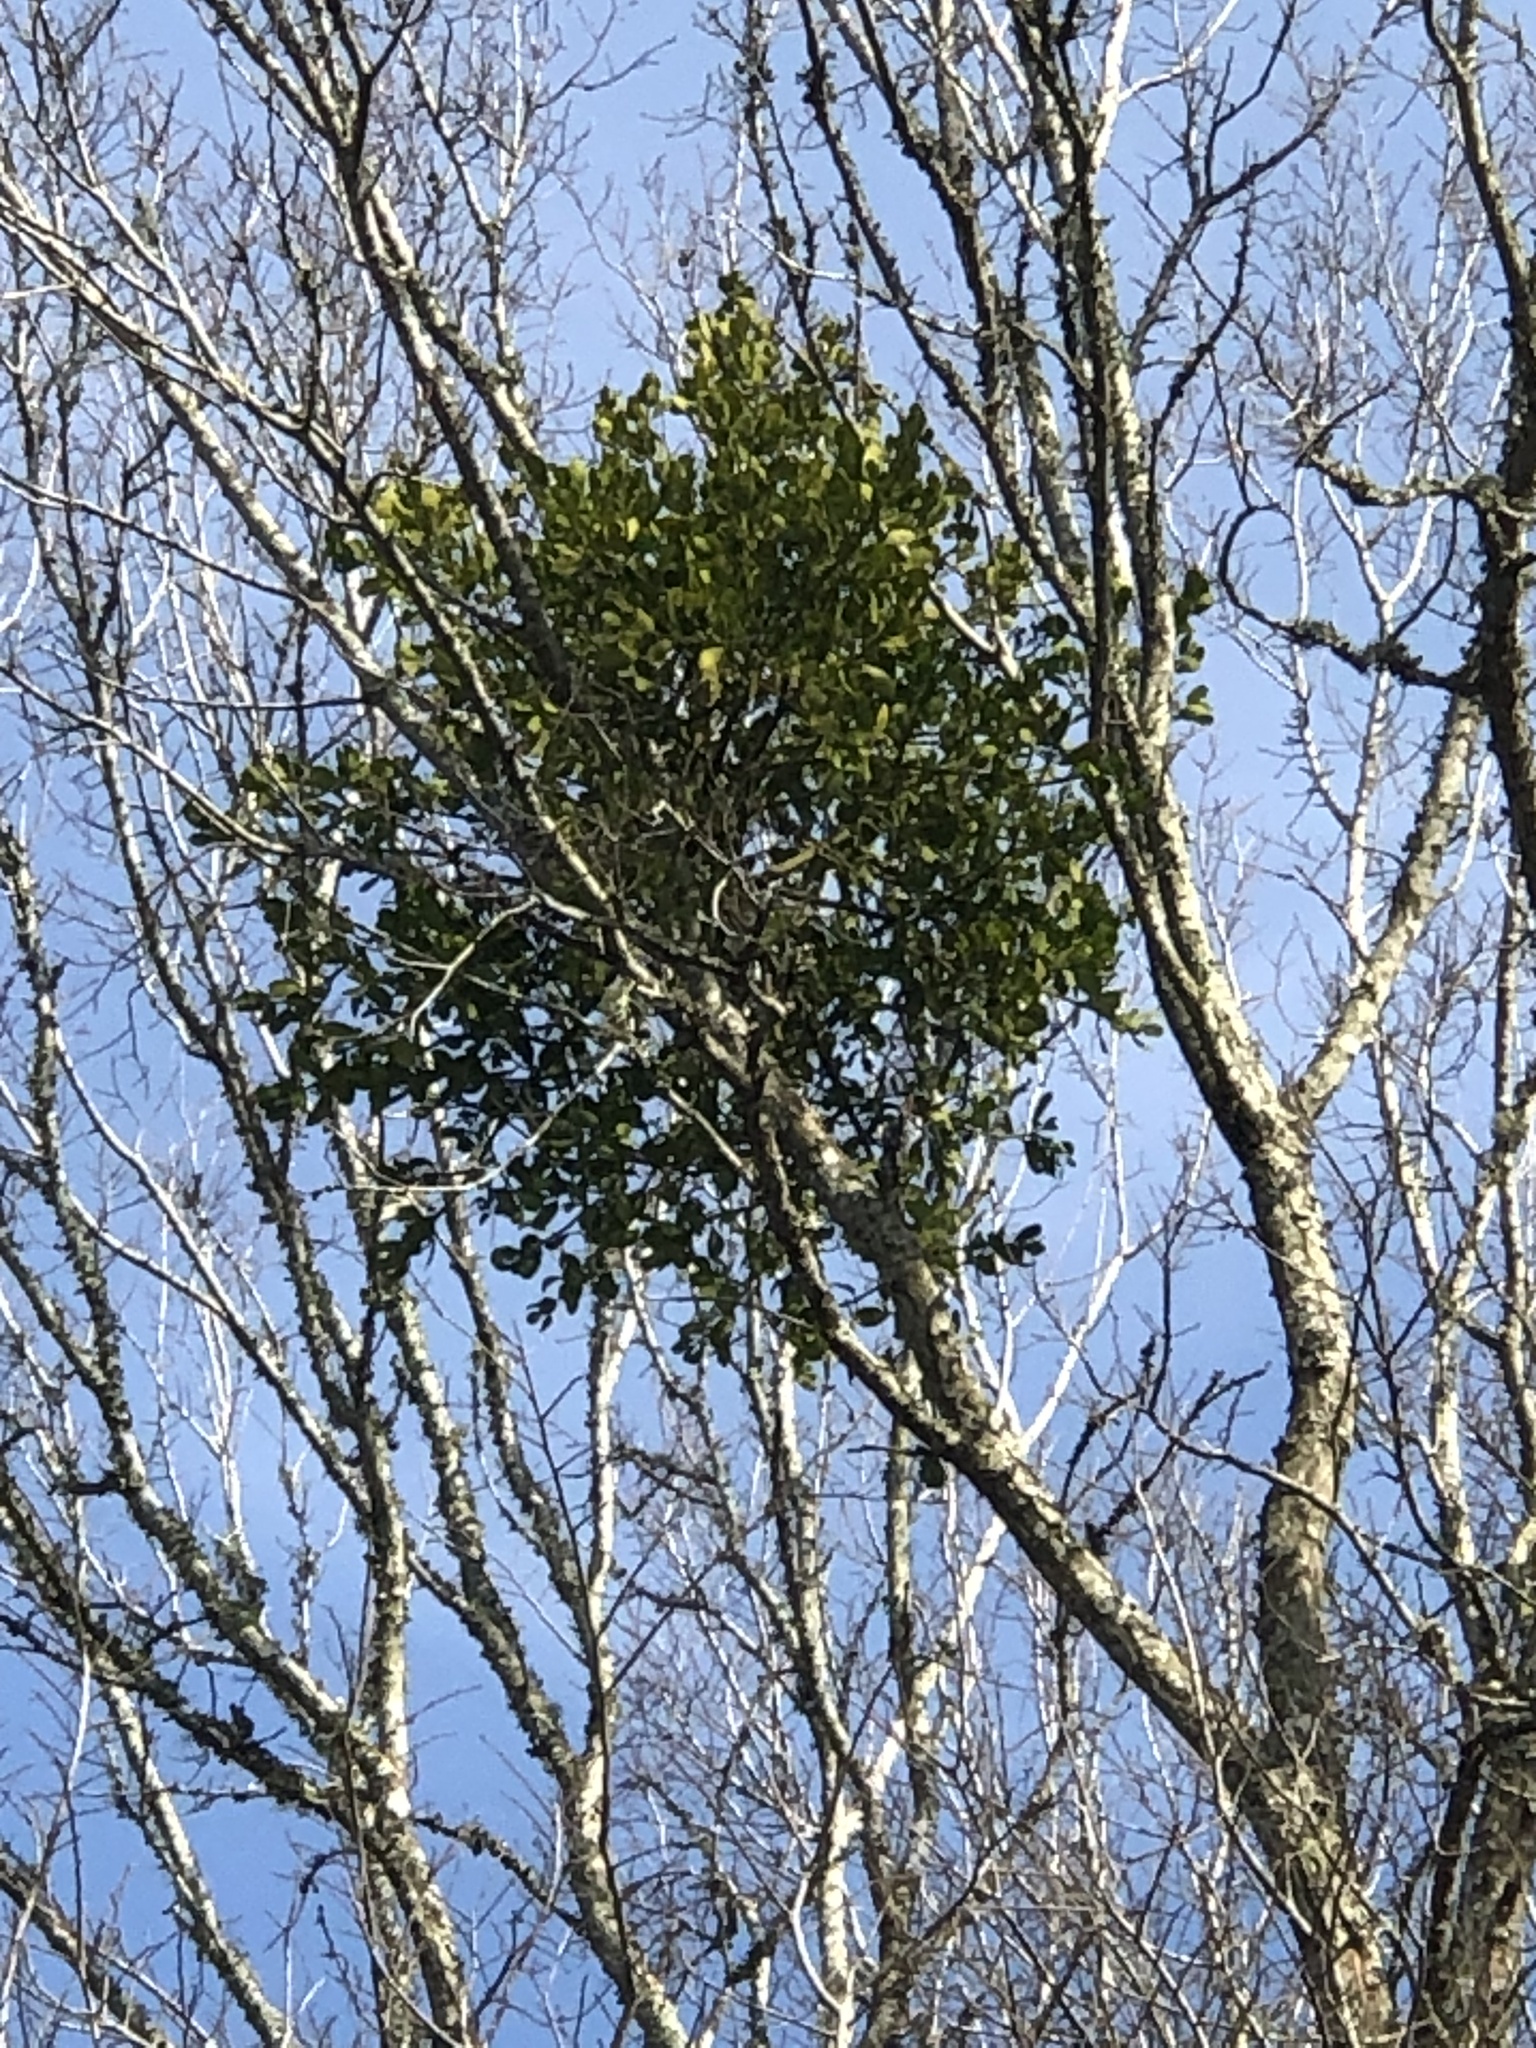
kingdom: Plantae
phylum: Tracheophyta
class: Magnoliopsida
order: Santalales
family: Viscaceae
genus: Phoradendron
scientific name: Phoradendron leucarpum
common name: Pacific mistletoe
